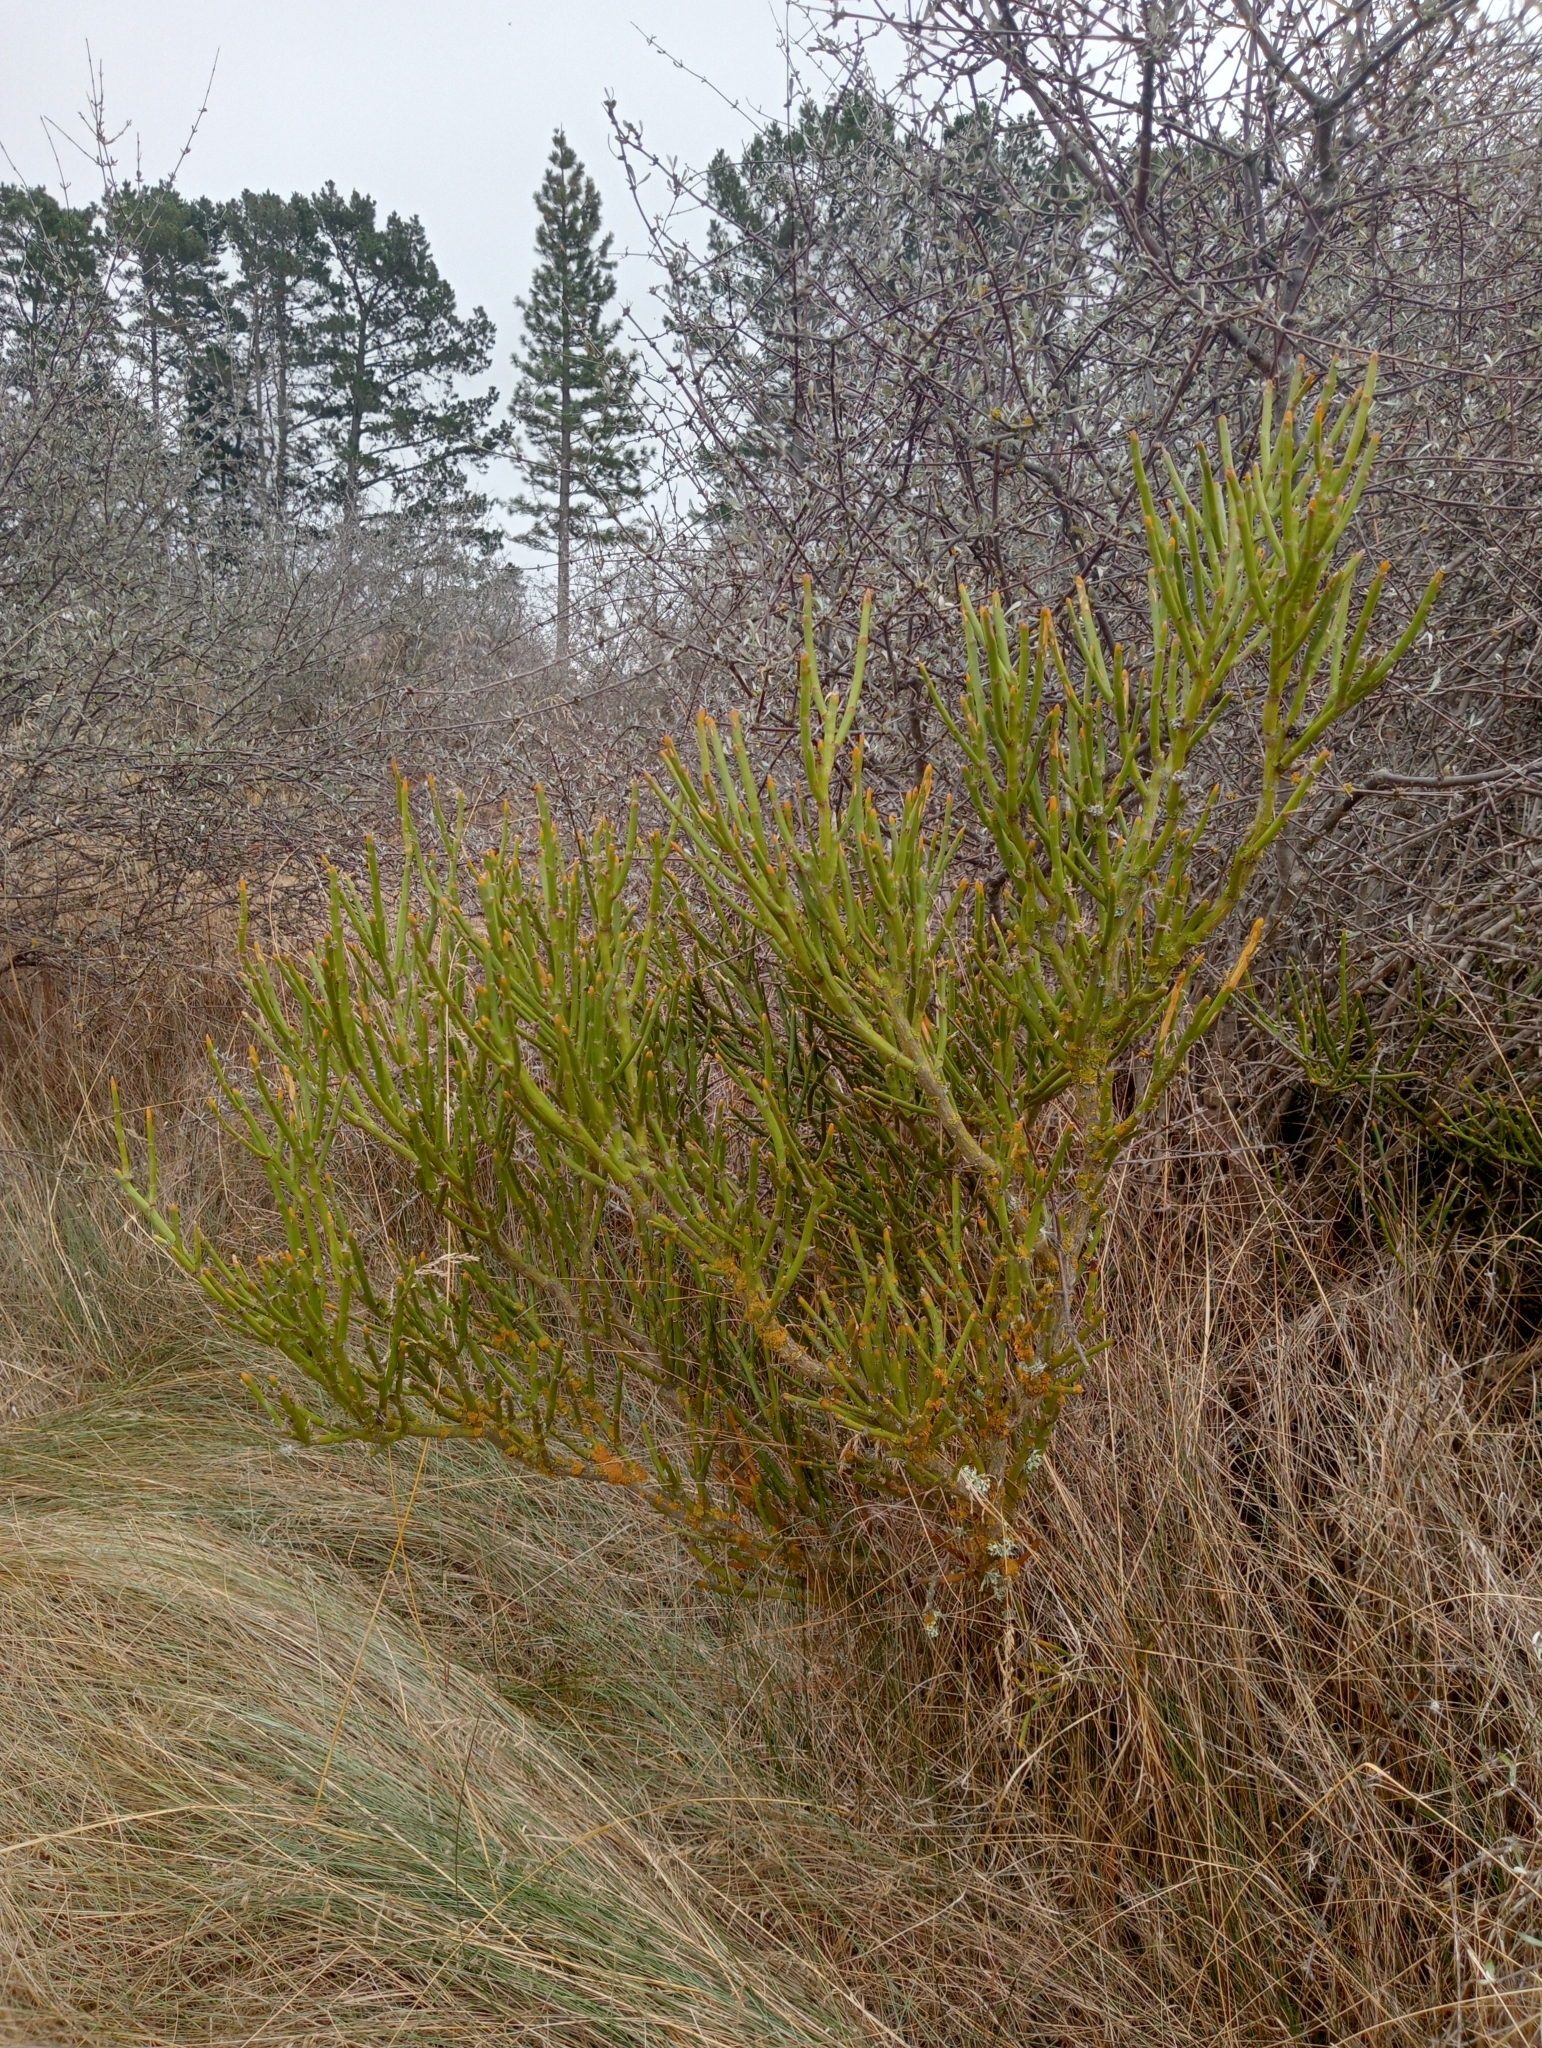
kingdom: Plantae
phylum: Tracheophyta
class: Magnoliopsida
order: Fabales
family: Fabaceae
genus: Carmichaelia
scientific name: Carmichaelia petriei
